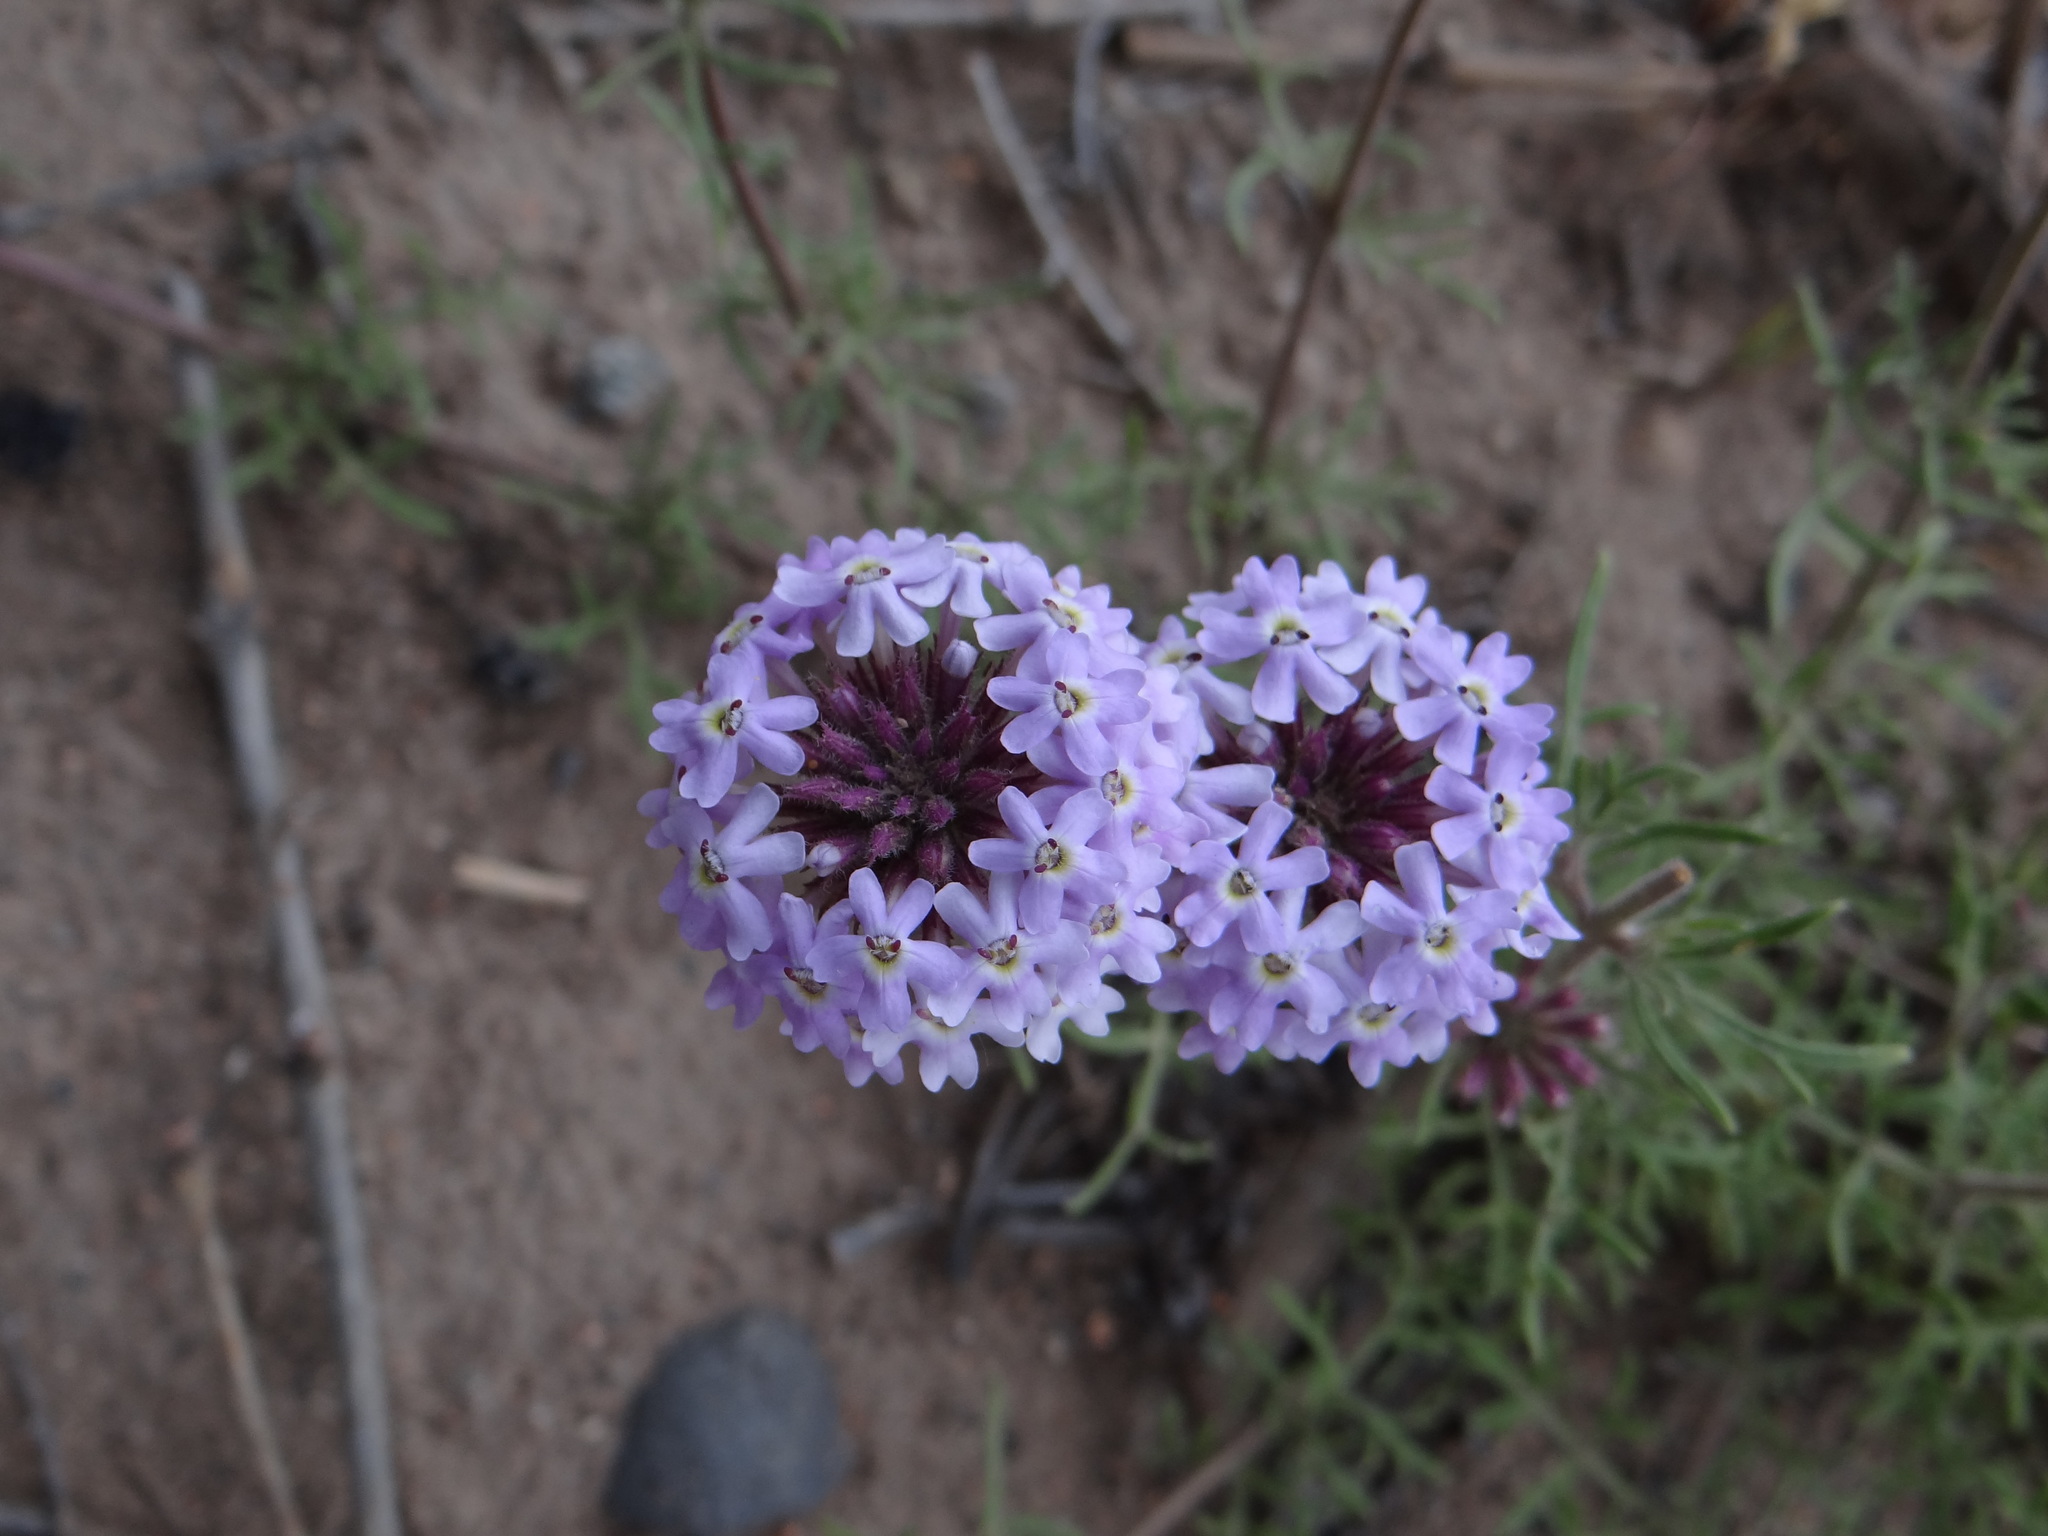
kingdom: Plantae
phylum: Tracheophyta
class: Magnoliopsida
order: Lamiales
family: Verbenaceae
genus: Junellia
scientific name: Junellia hookeriana
